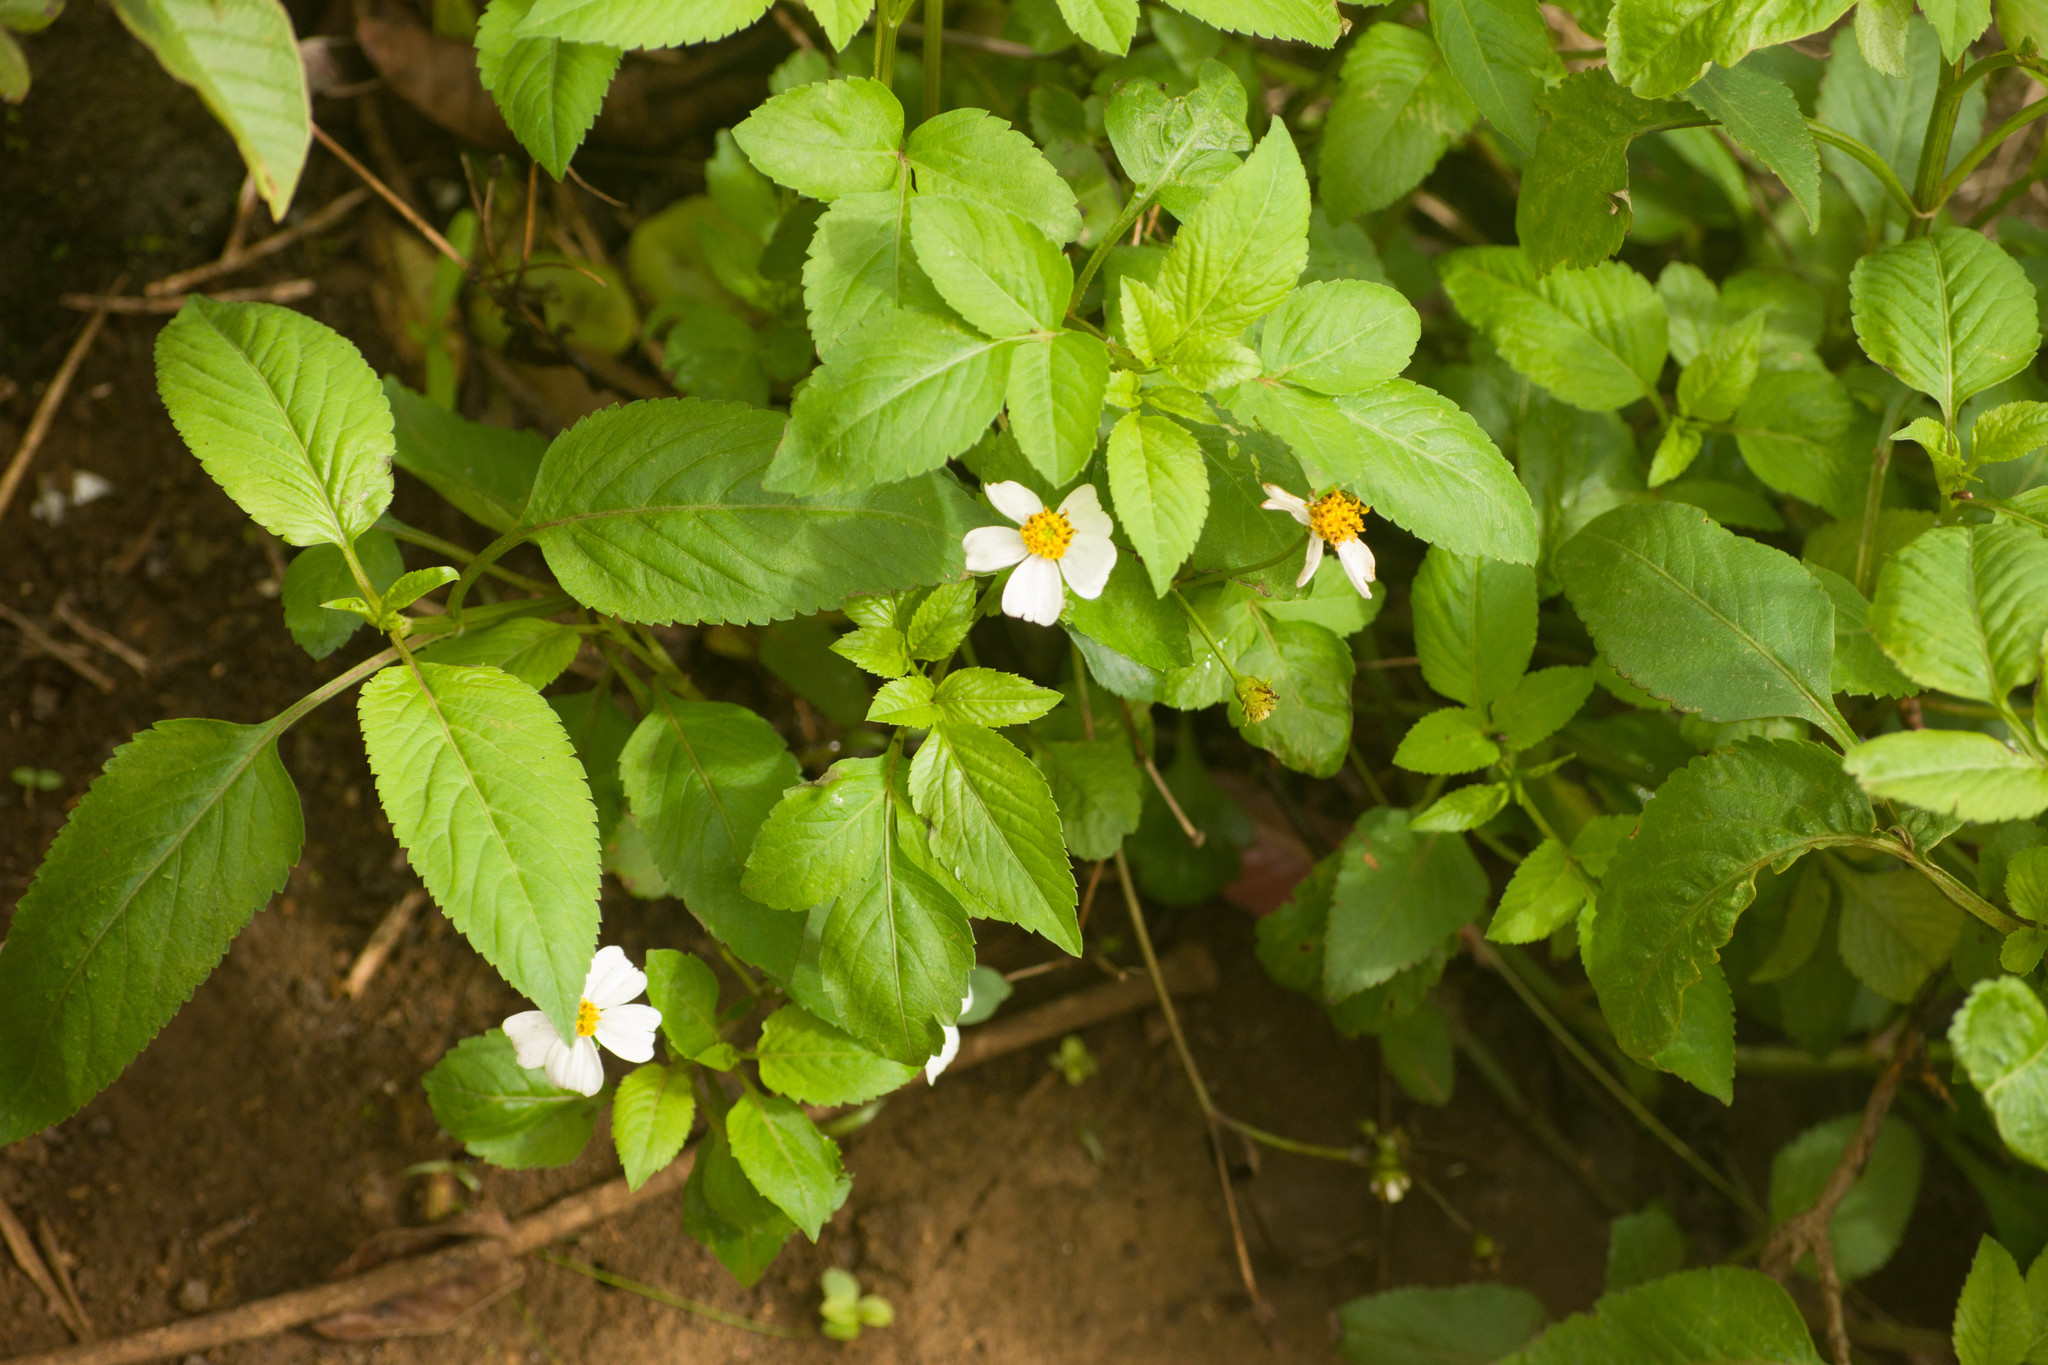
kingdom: Plantae
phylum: Tracheophyta
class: Magnoliopsida
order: Asterales
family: Asteraceae
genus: Bidens
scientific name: Bidens alba
